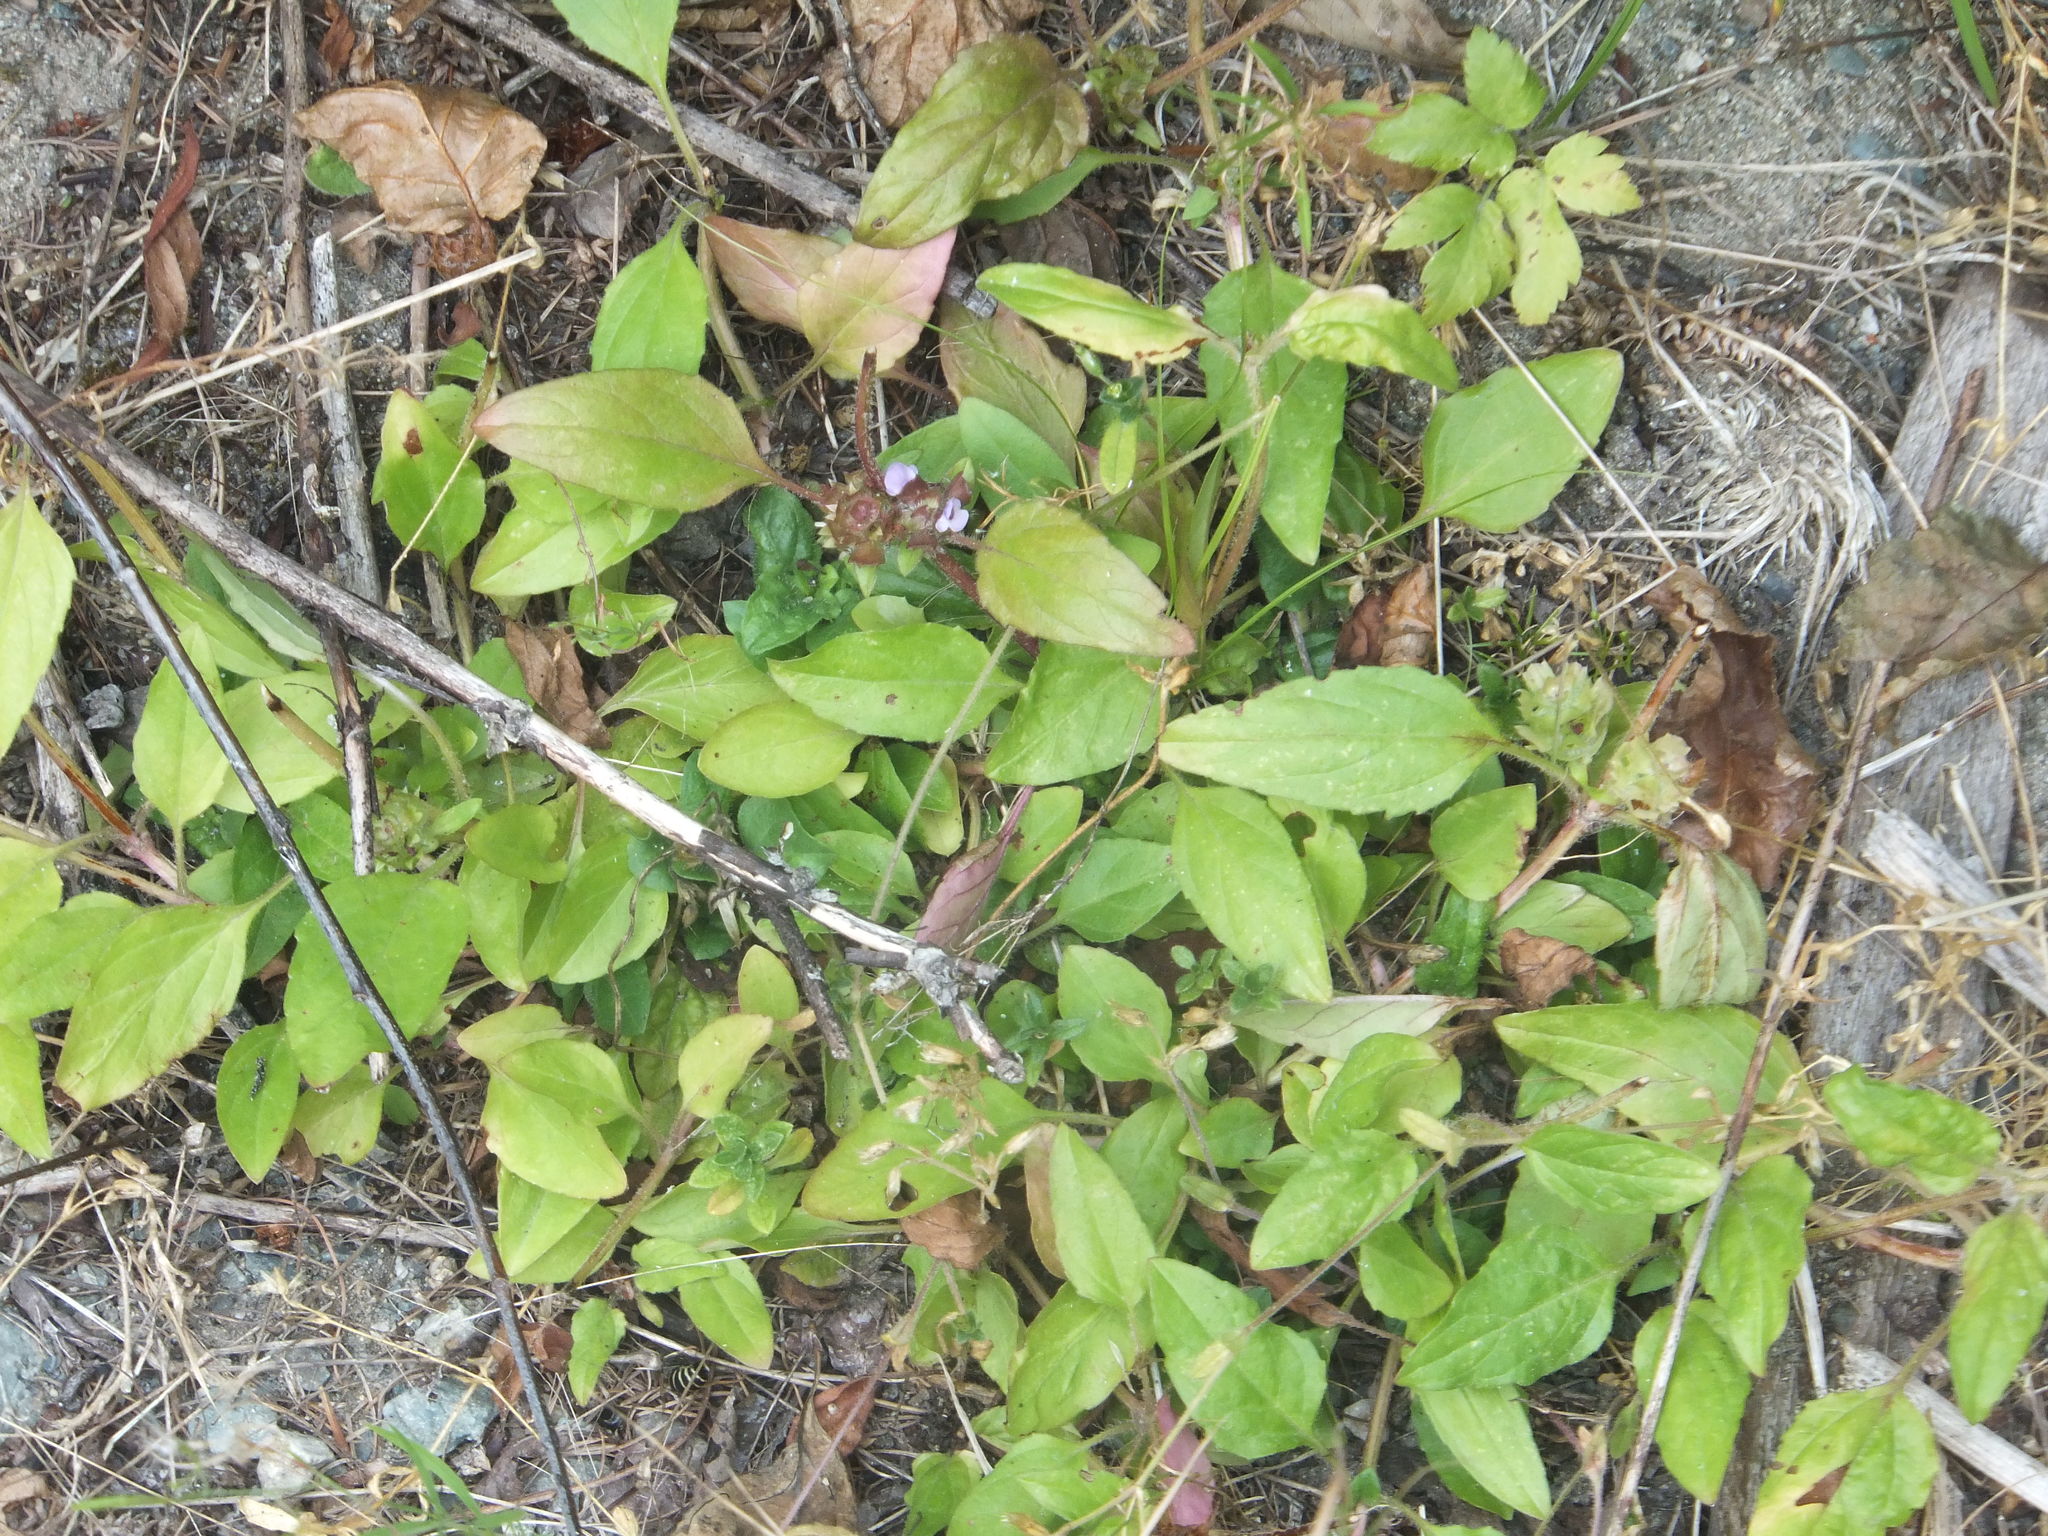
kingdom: Plantae
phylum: Tracheophyta
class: Magnoliopsida
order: Lamiales
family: Lamiaceae
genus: Prunella
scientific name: Prunella vulgaris
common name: Heal-all
